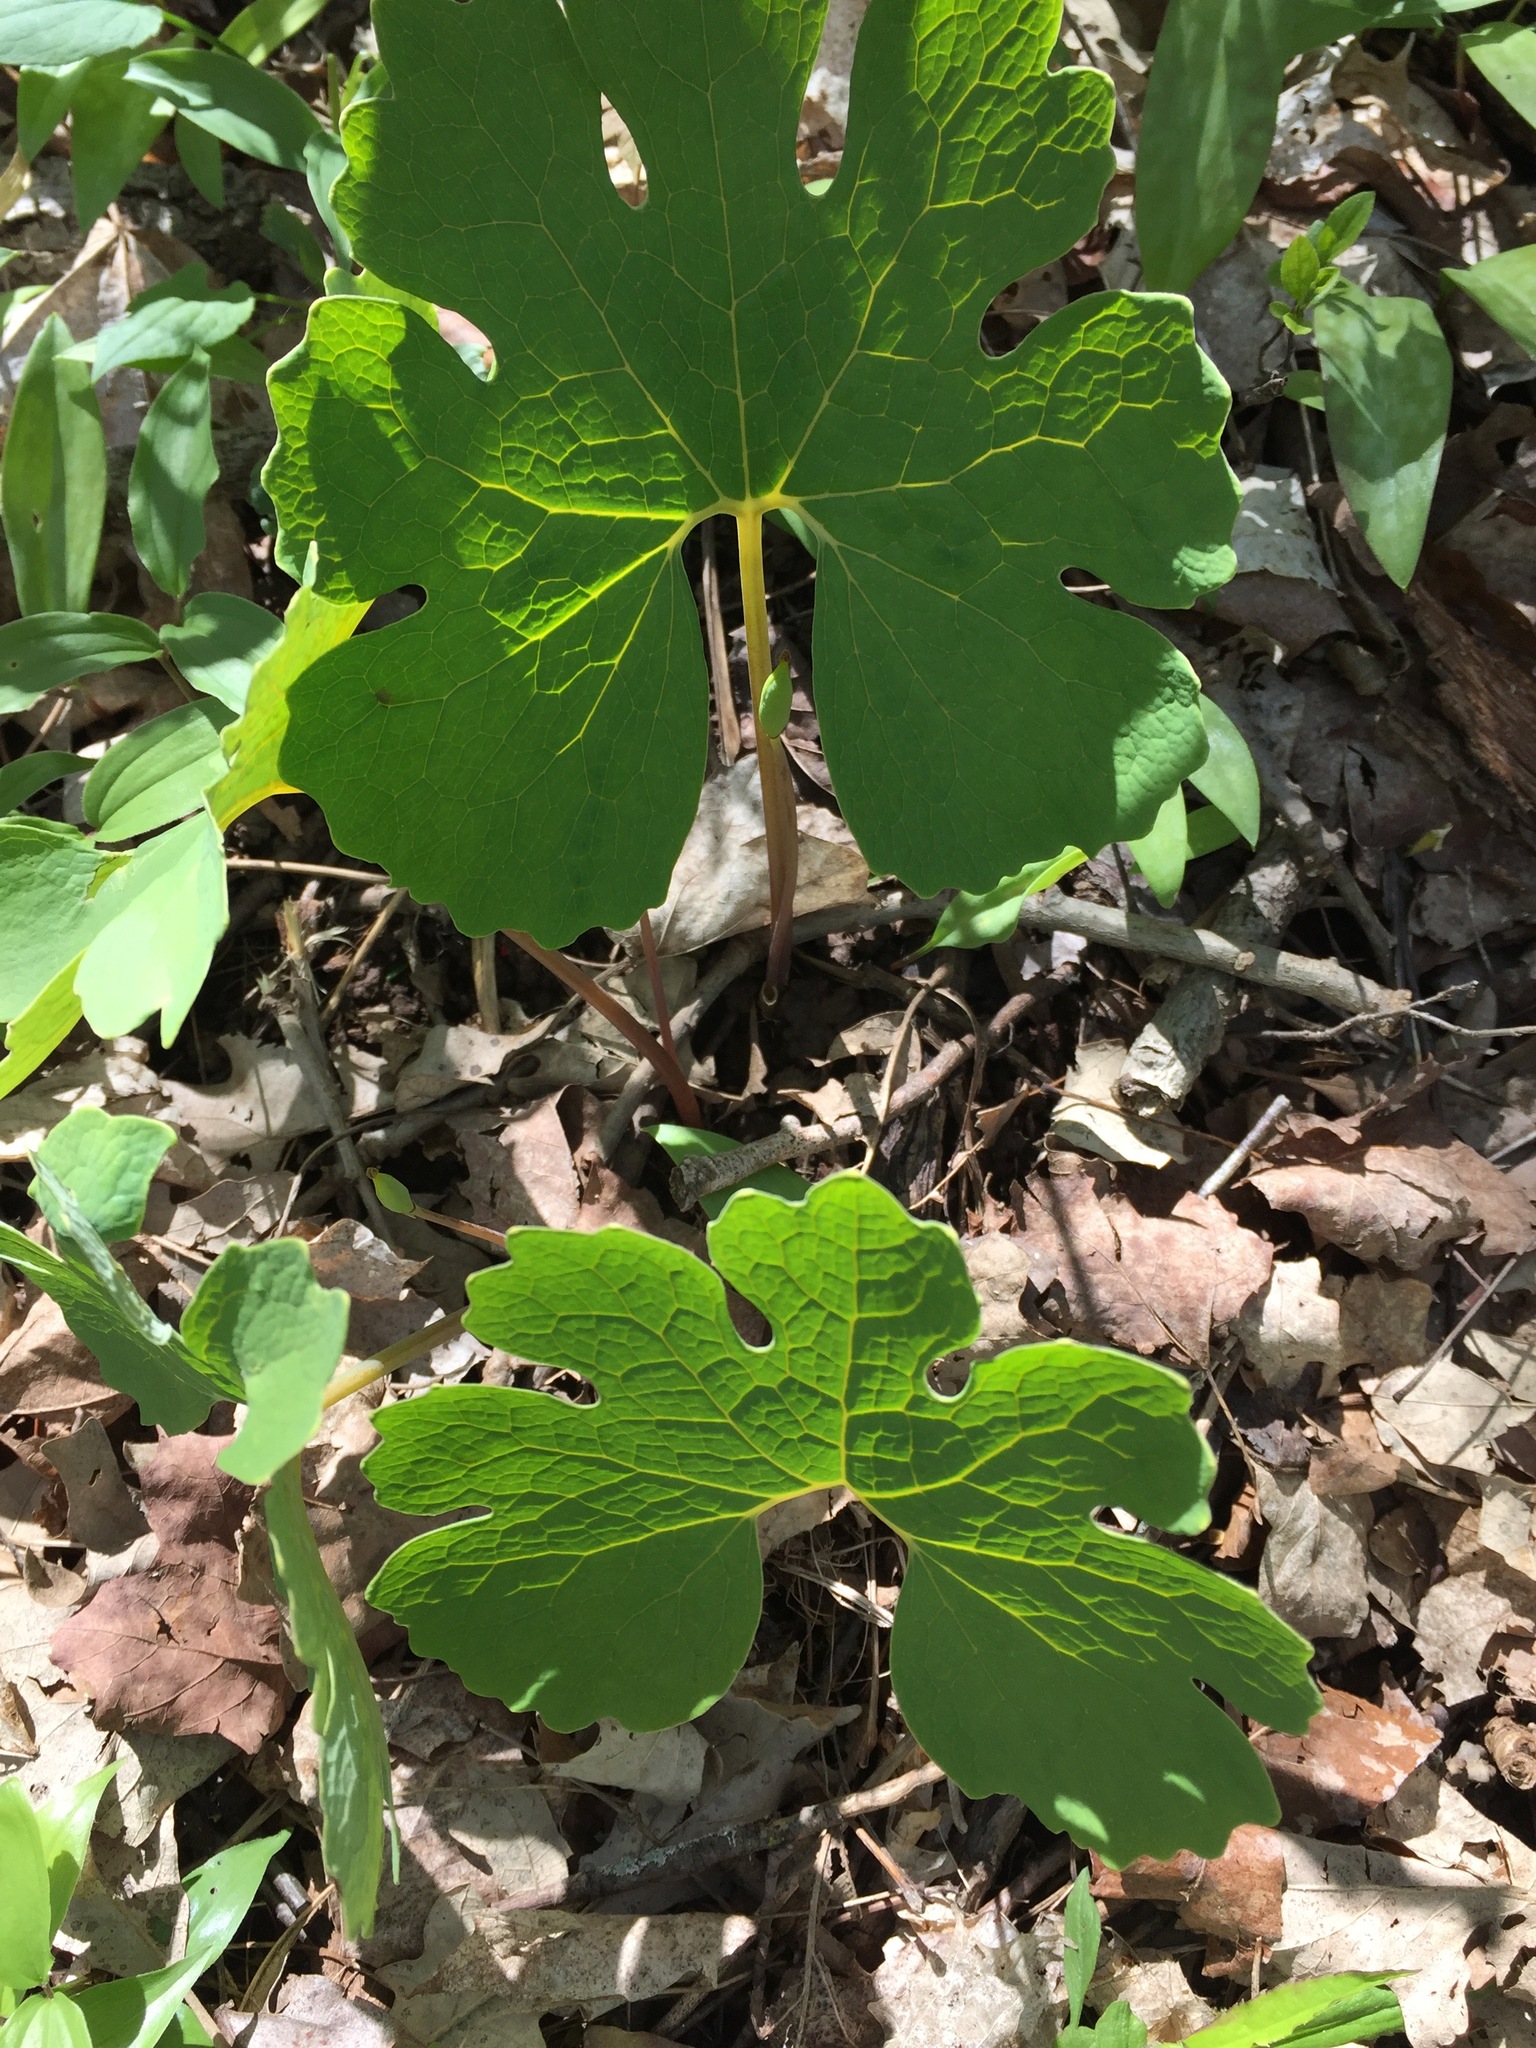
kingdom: Plantae
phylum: Tracheophyta
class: Magnoliopsida
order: Ranunculales
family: Papaveraceae
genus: Sanguinaria
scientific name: Sanguinaria canadensis
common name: Bloodroot
